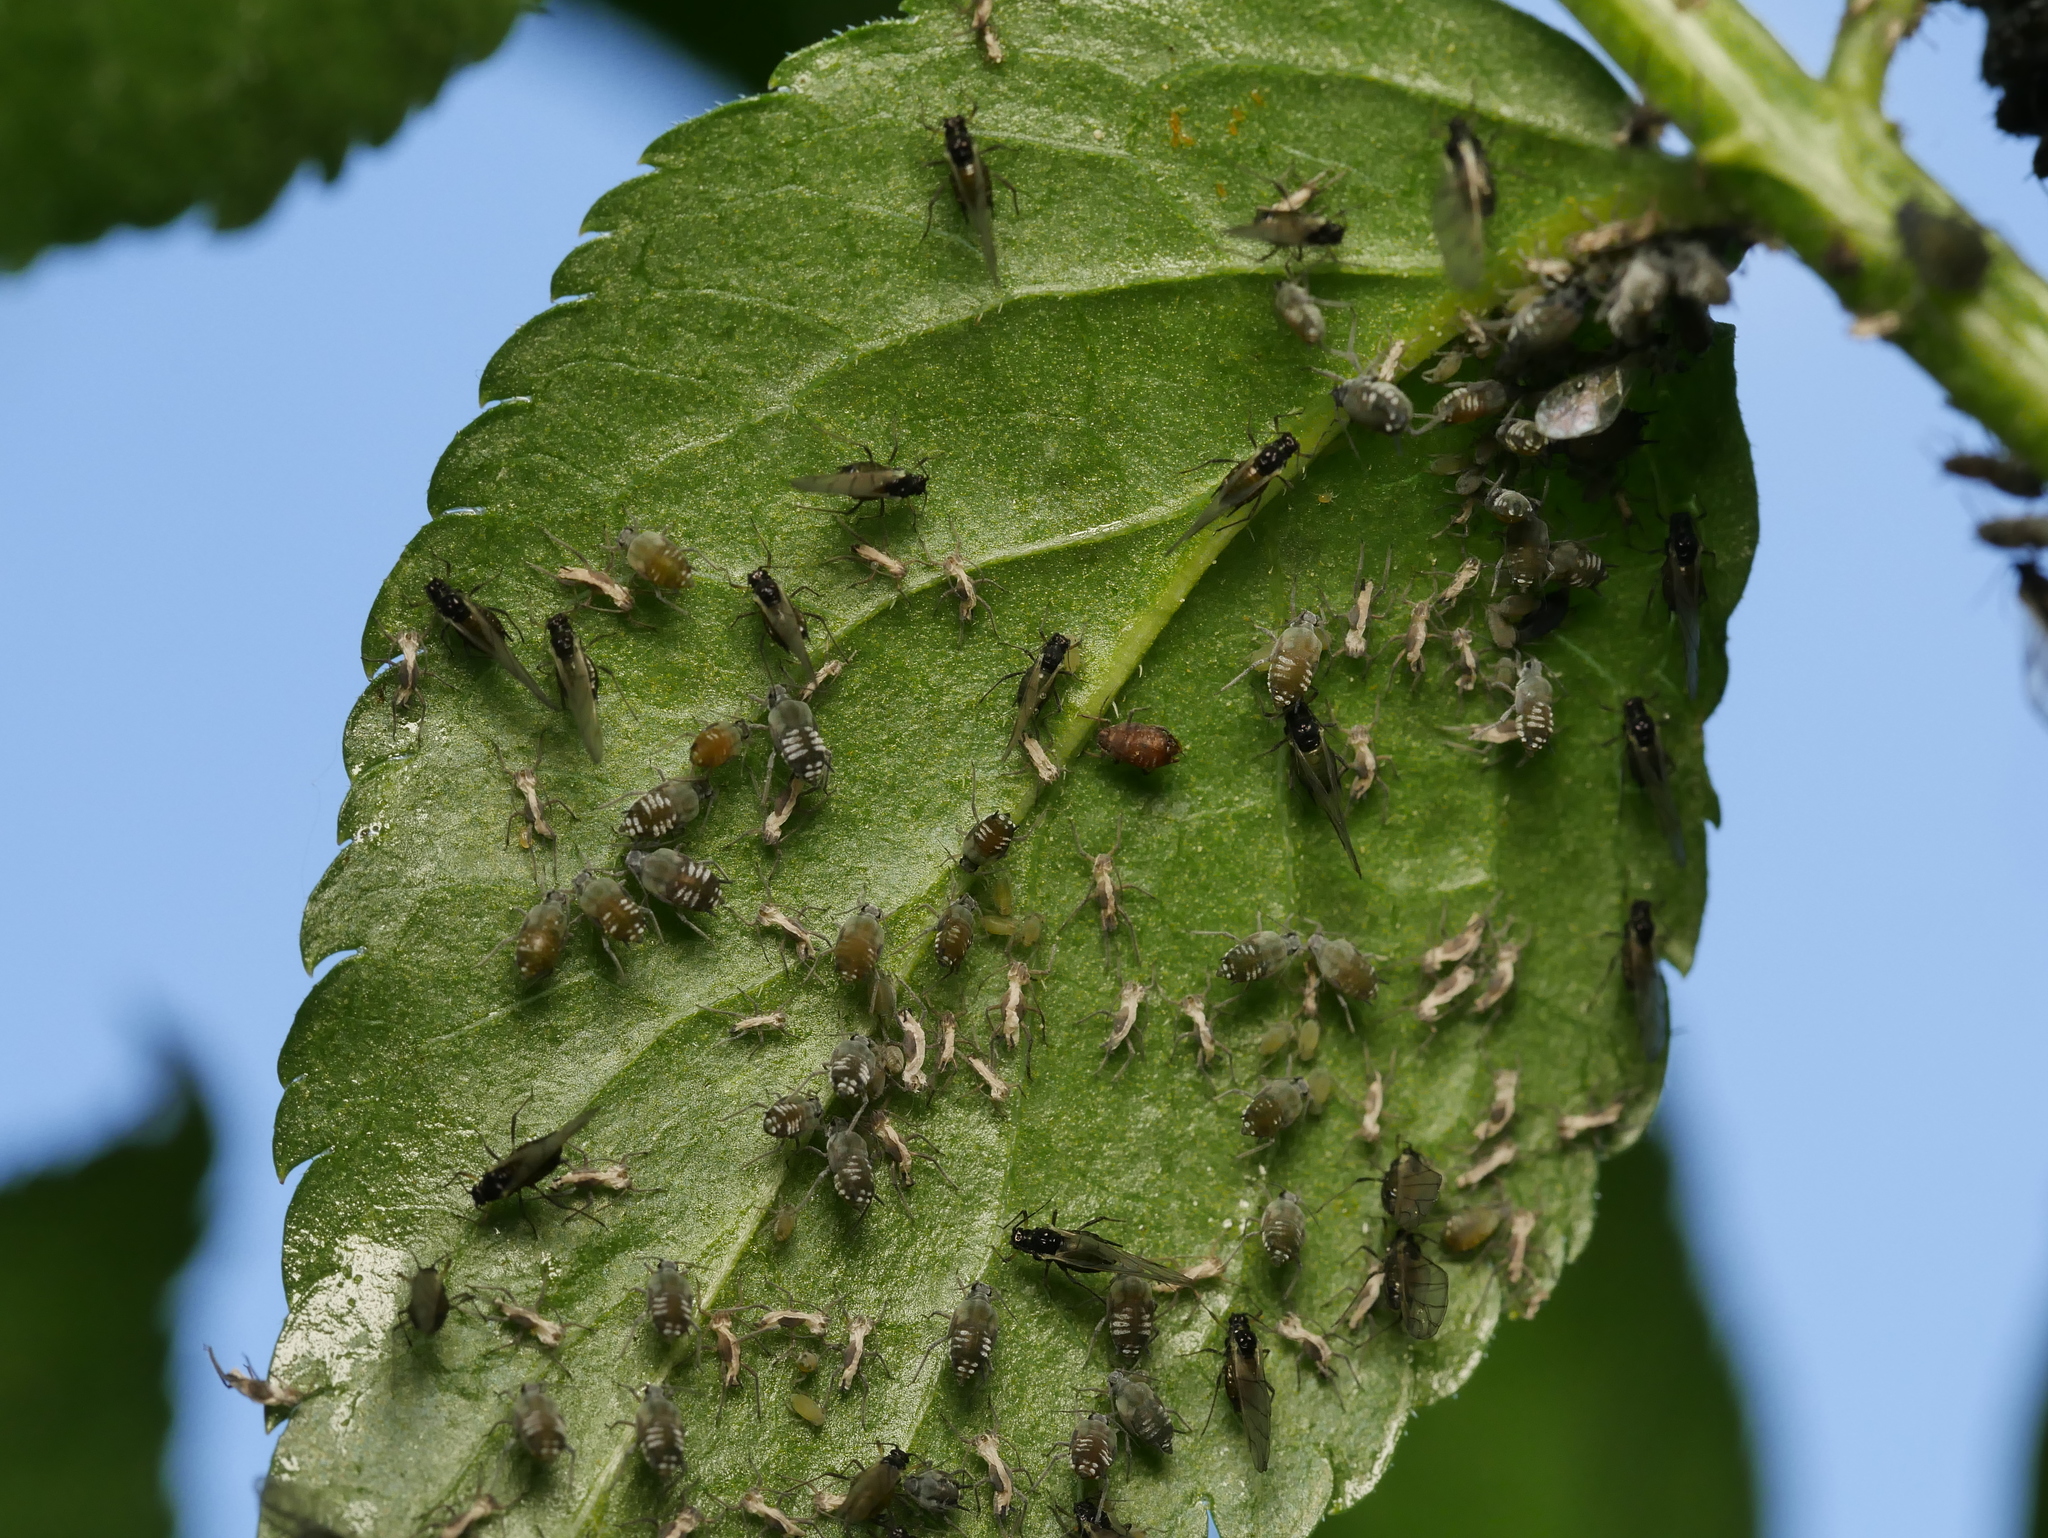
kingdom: Animalia
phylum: Arthropoda
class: Insecta
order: Hemiptera
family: Aphididae
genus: Aphis
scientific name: Aphis sambuci
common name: Elder aphid
